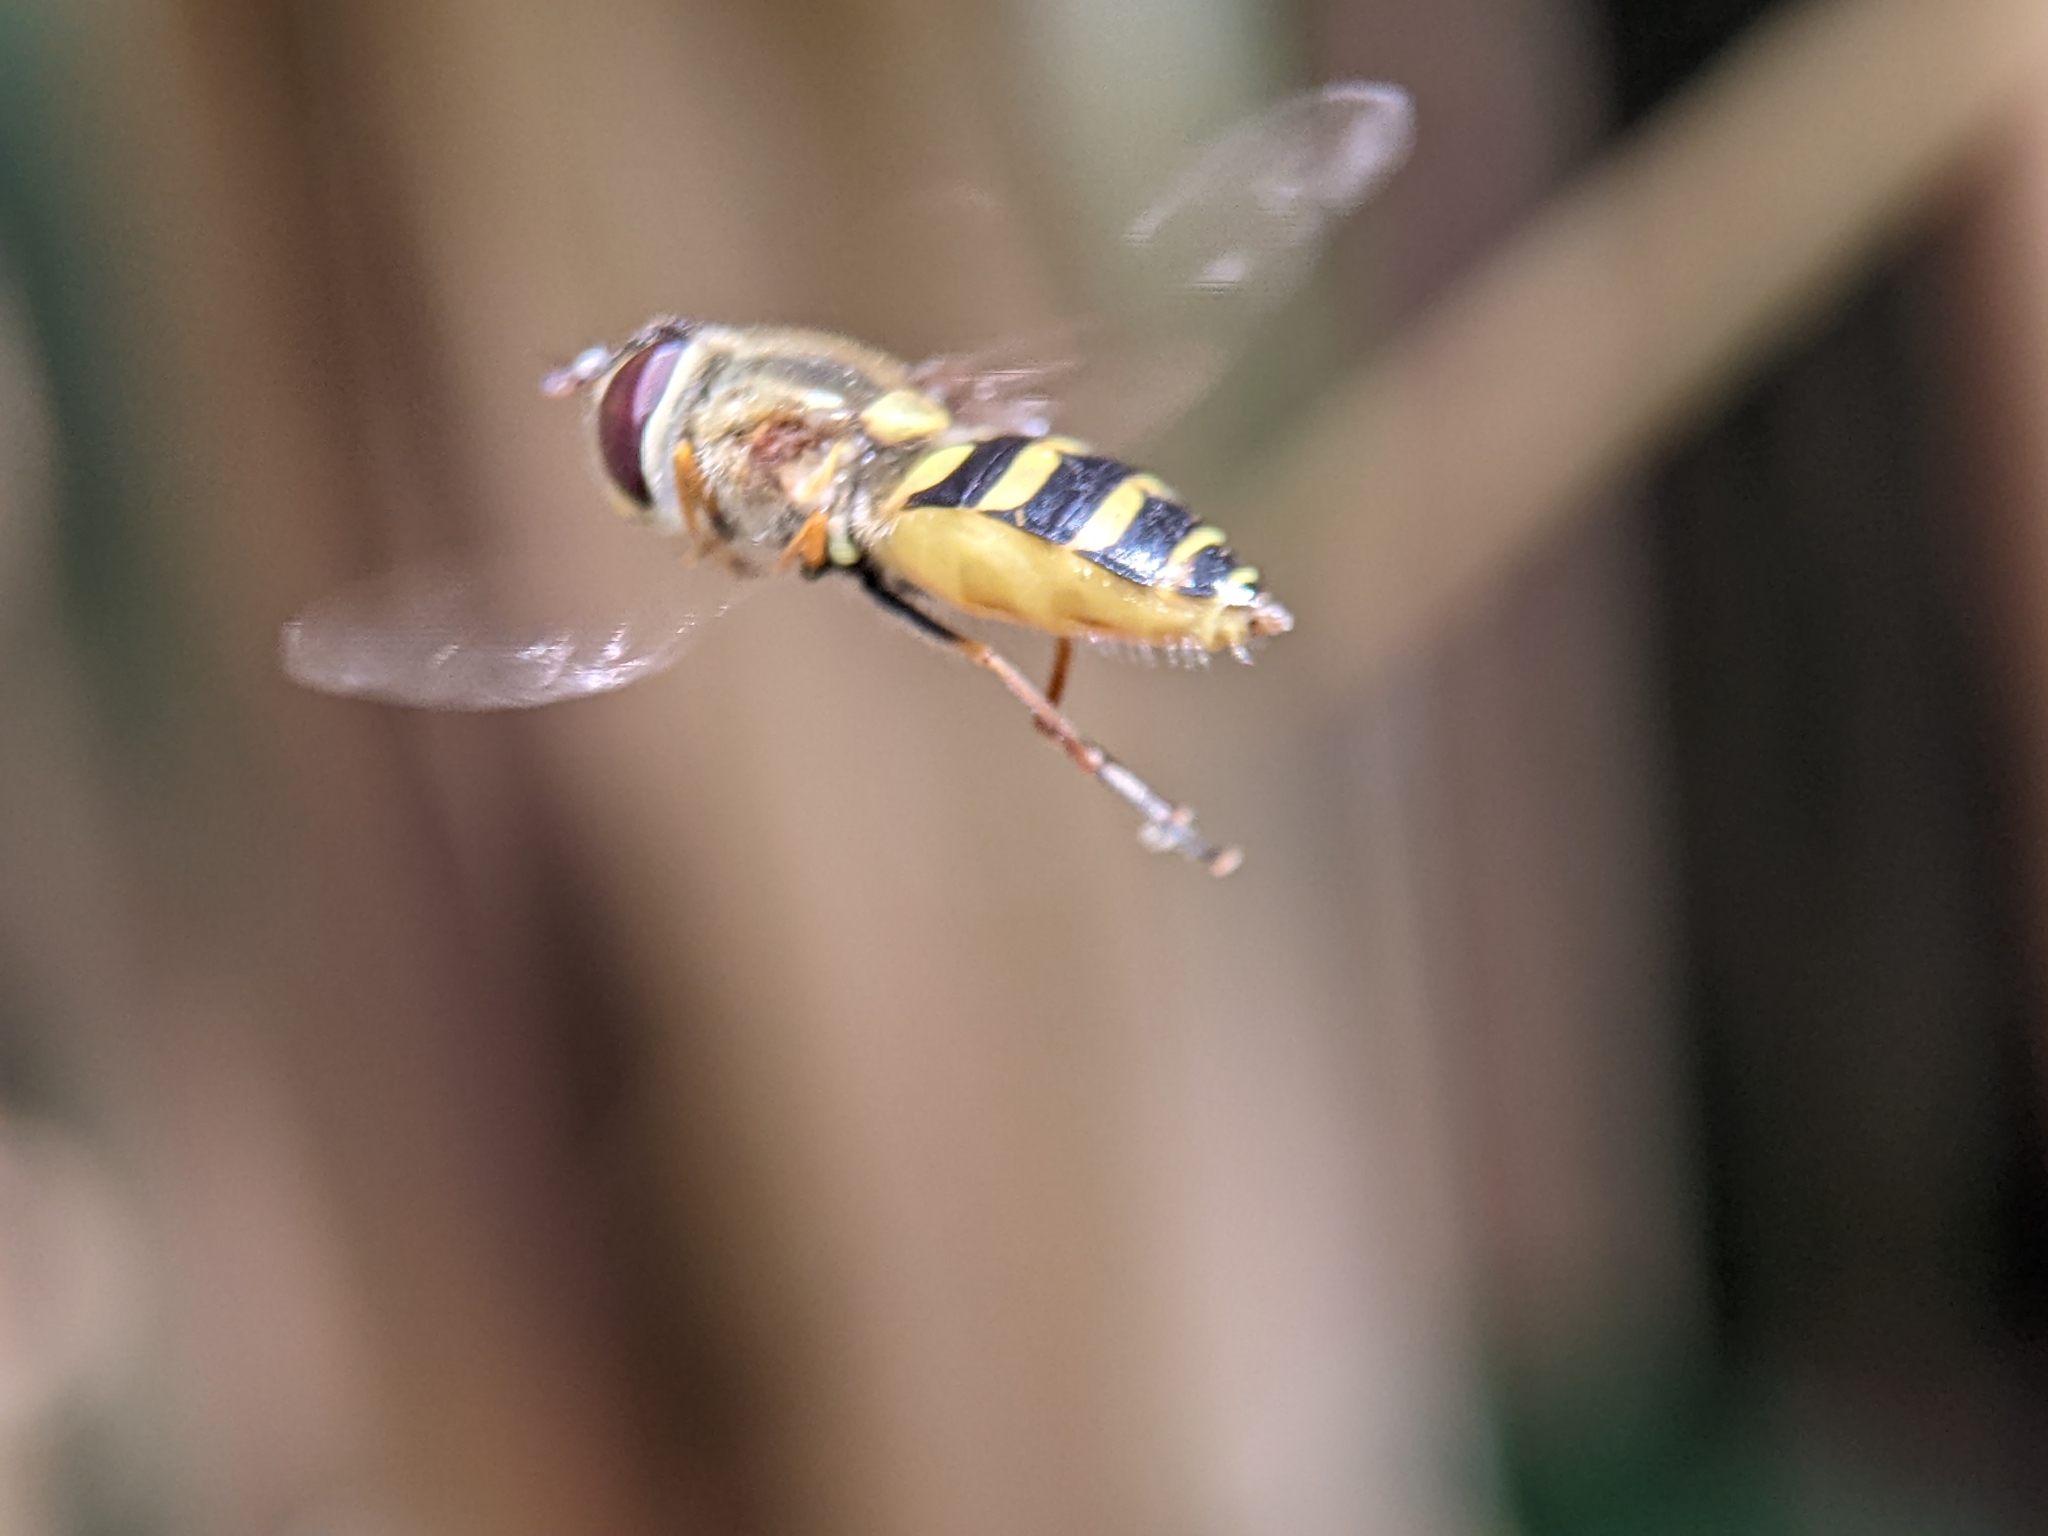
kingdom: Animalia
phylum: Arthropoda
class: Insecta
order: Diptera
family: Syrphidae
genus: Syrphus
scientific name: Syrphus
